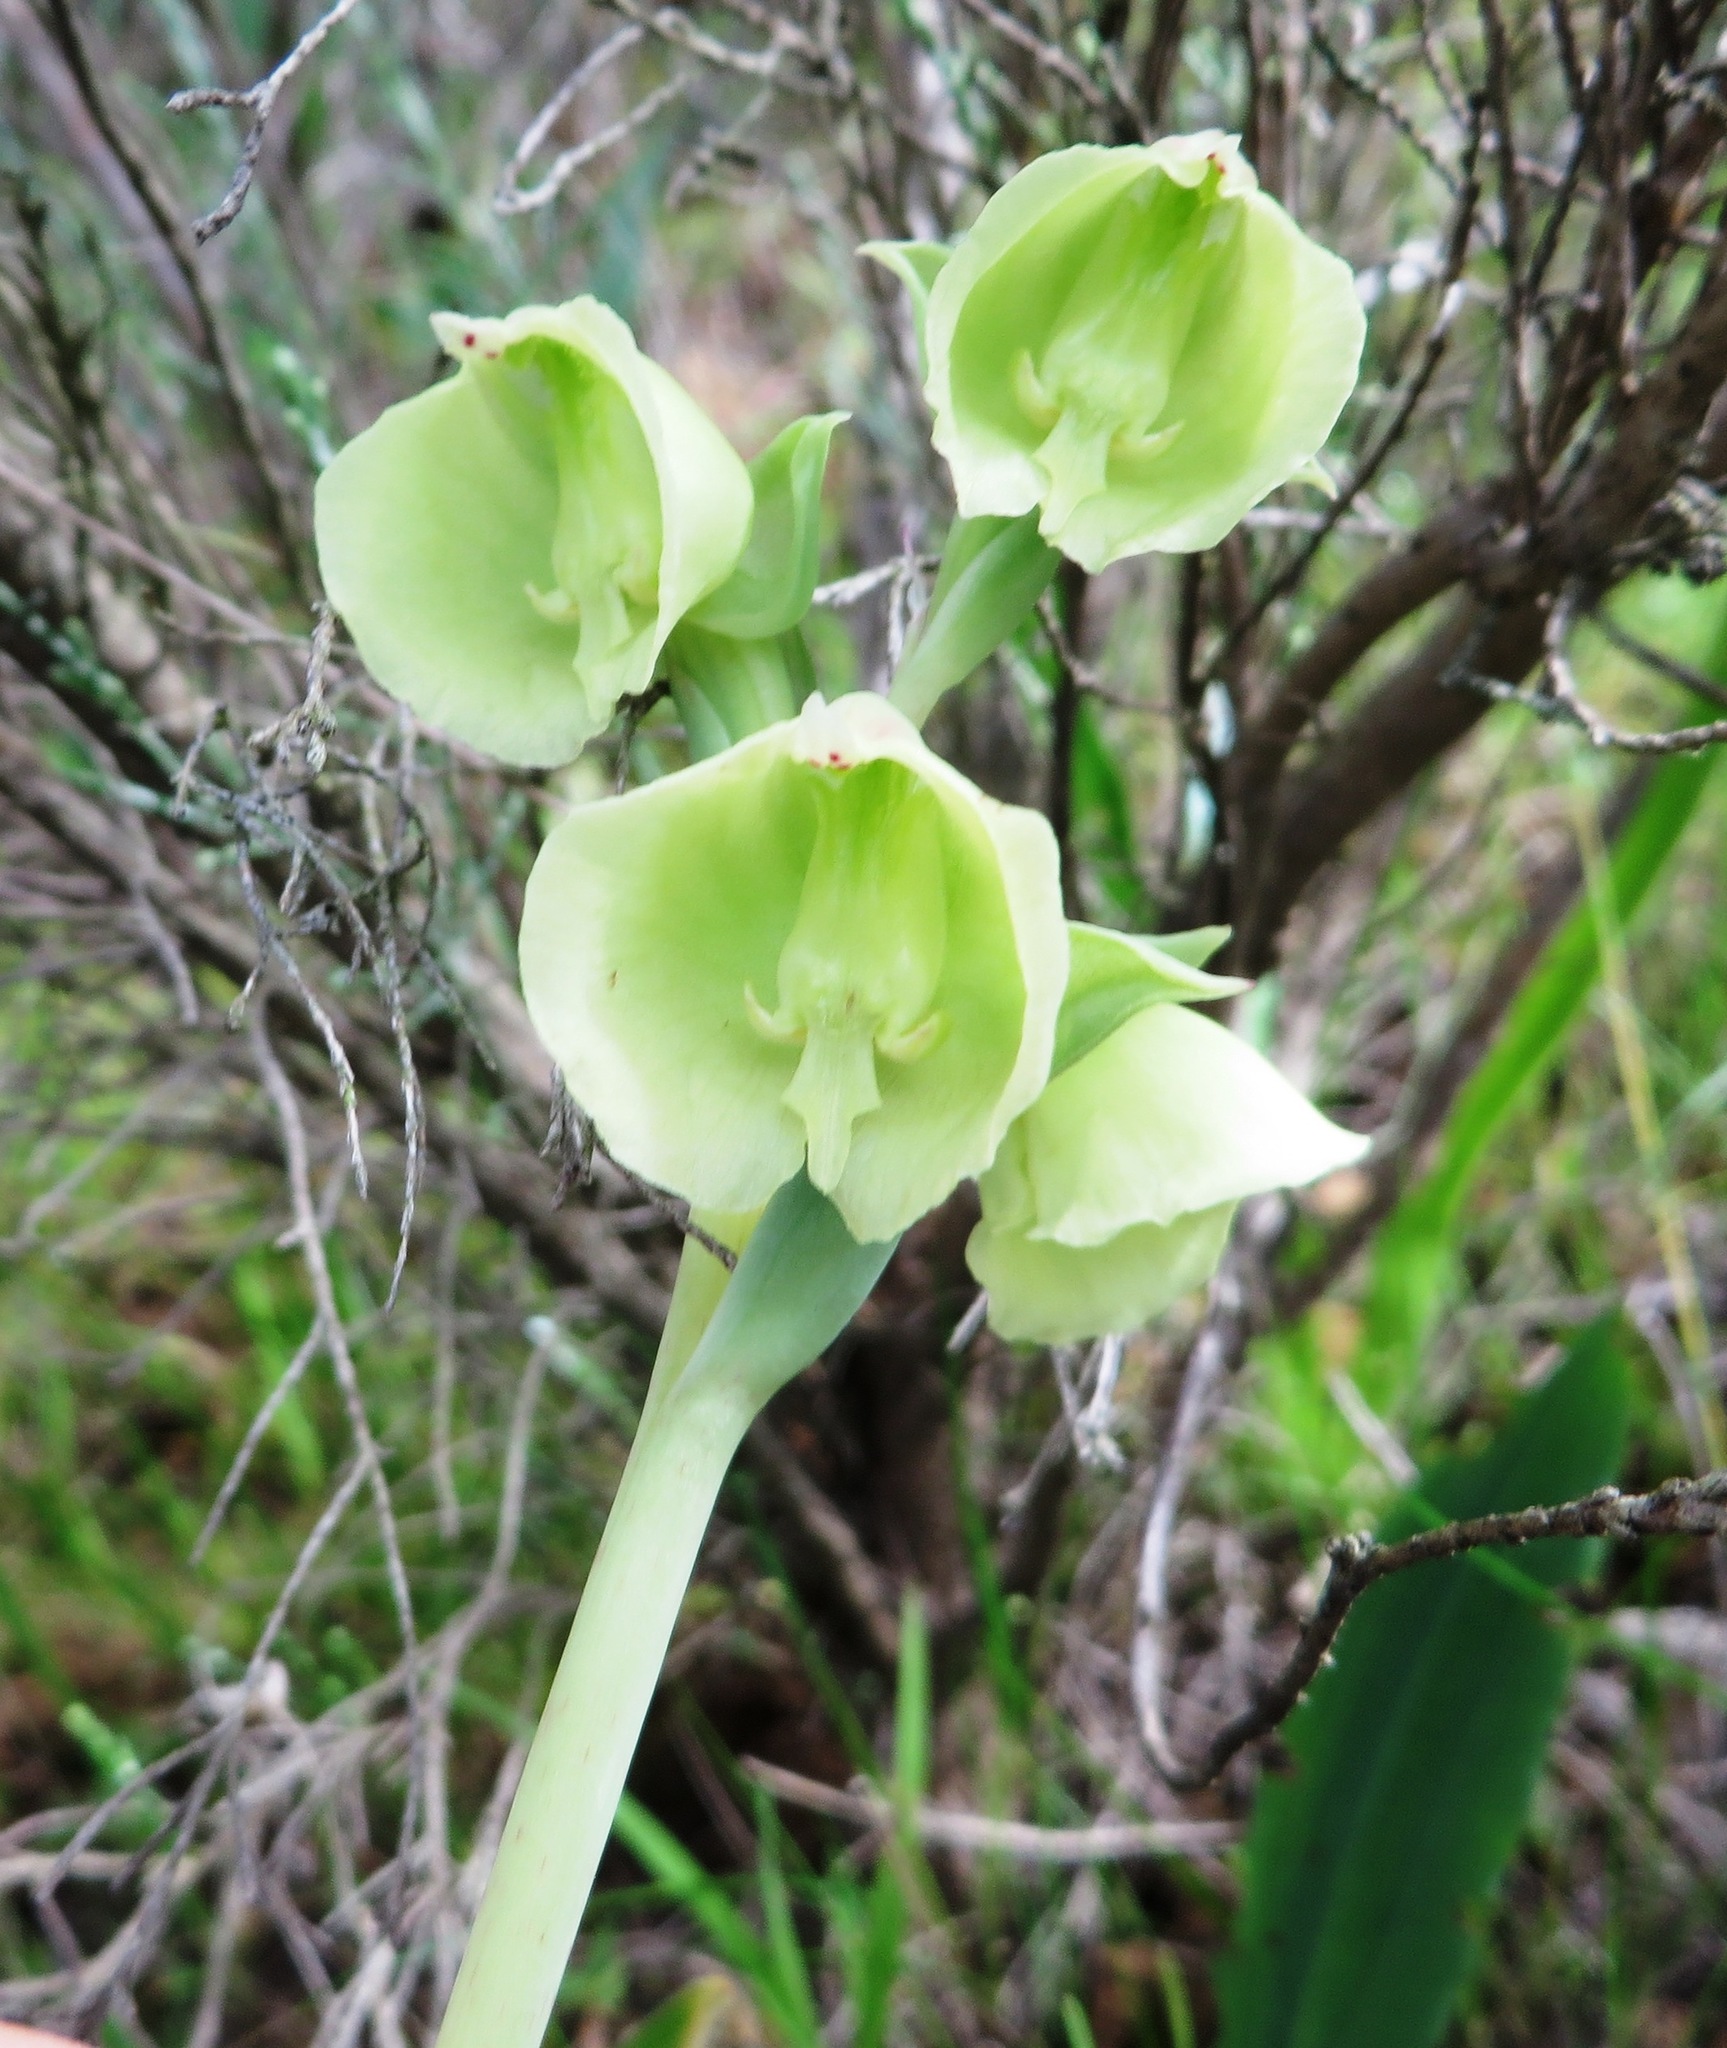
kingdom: Plantae
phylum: Tracheophyta
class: Liliopsida
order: Asparagales
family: Orchidaceae
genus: Pterygodium
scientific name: Pterygodium catholicum
